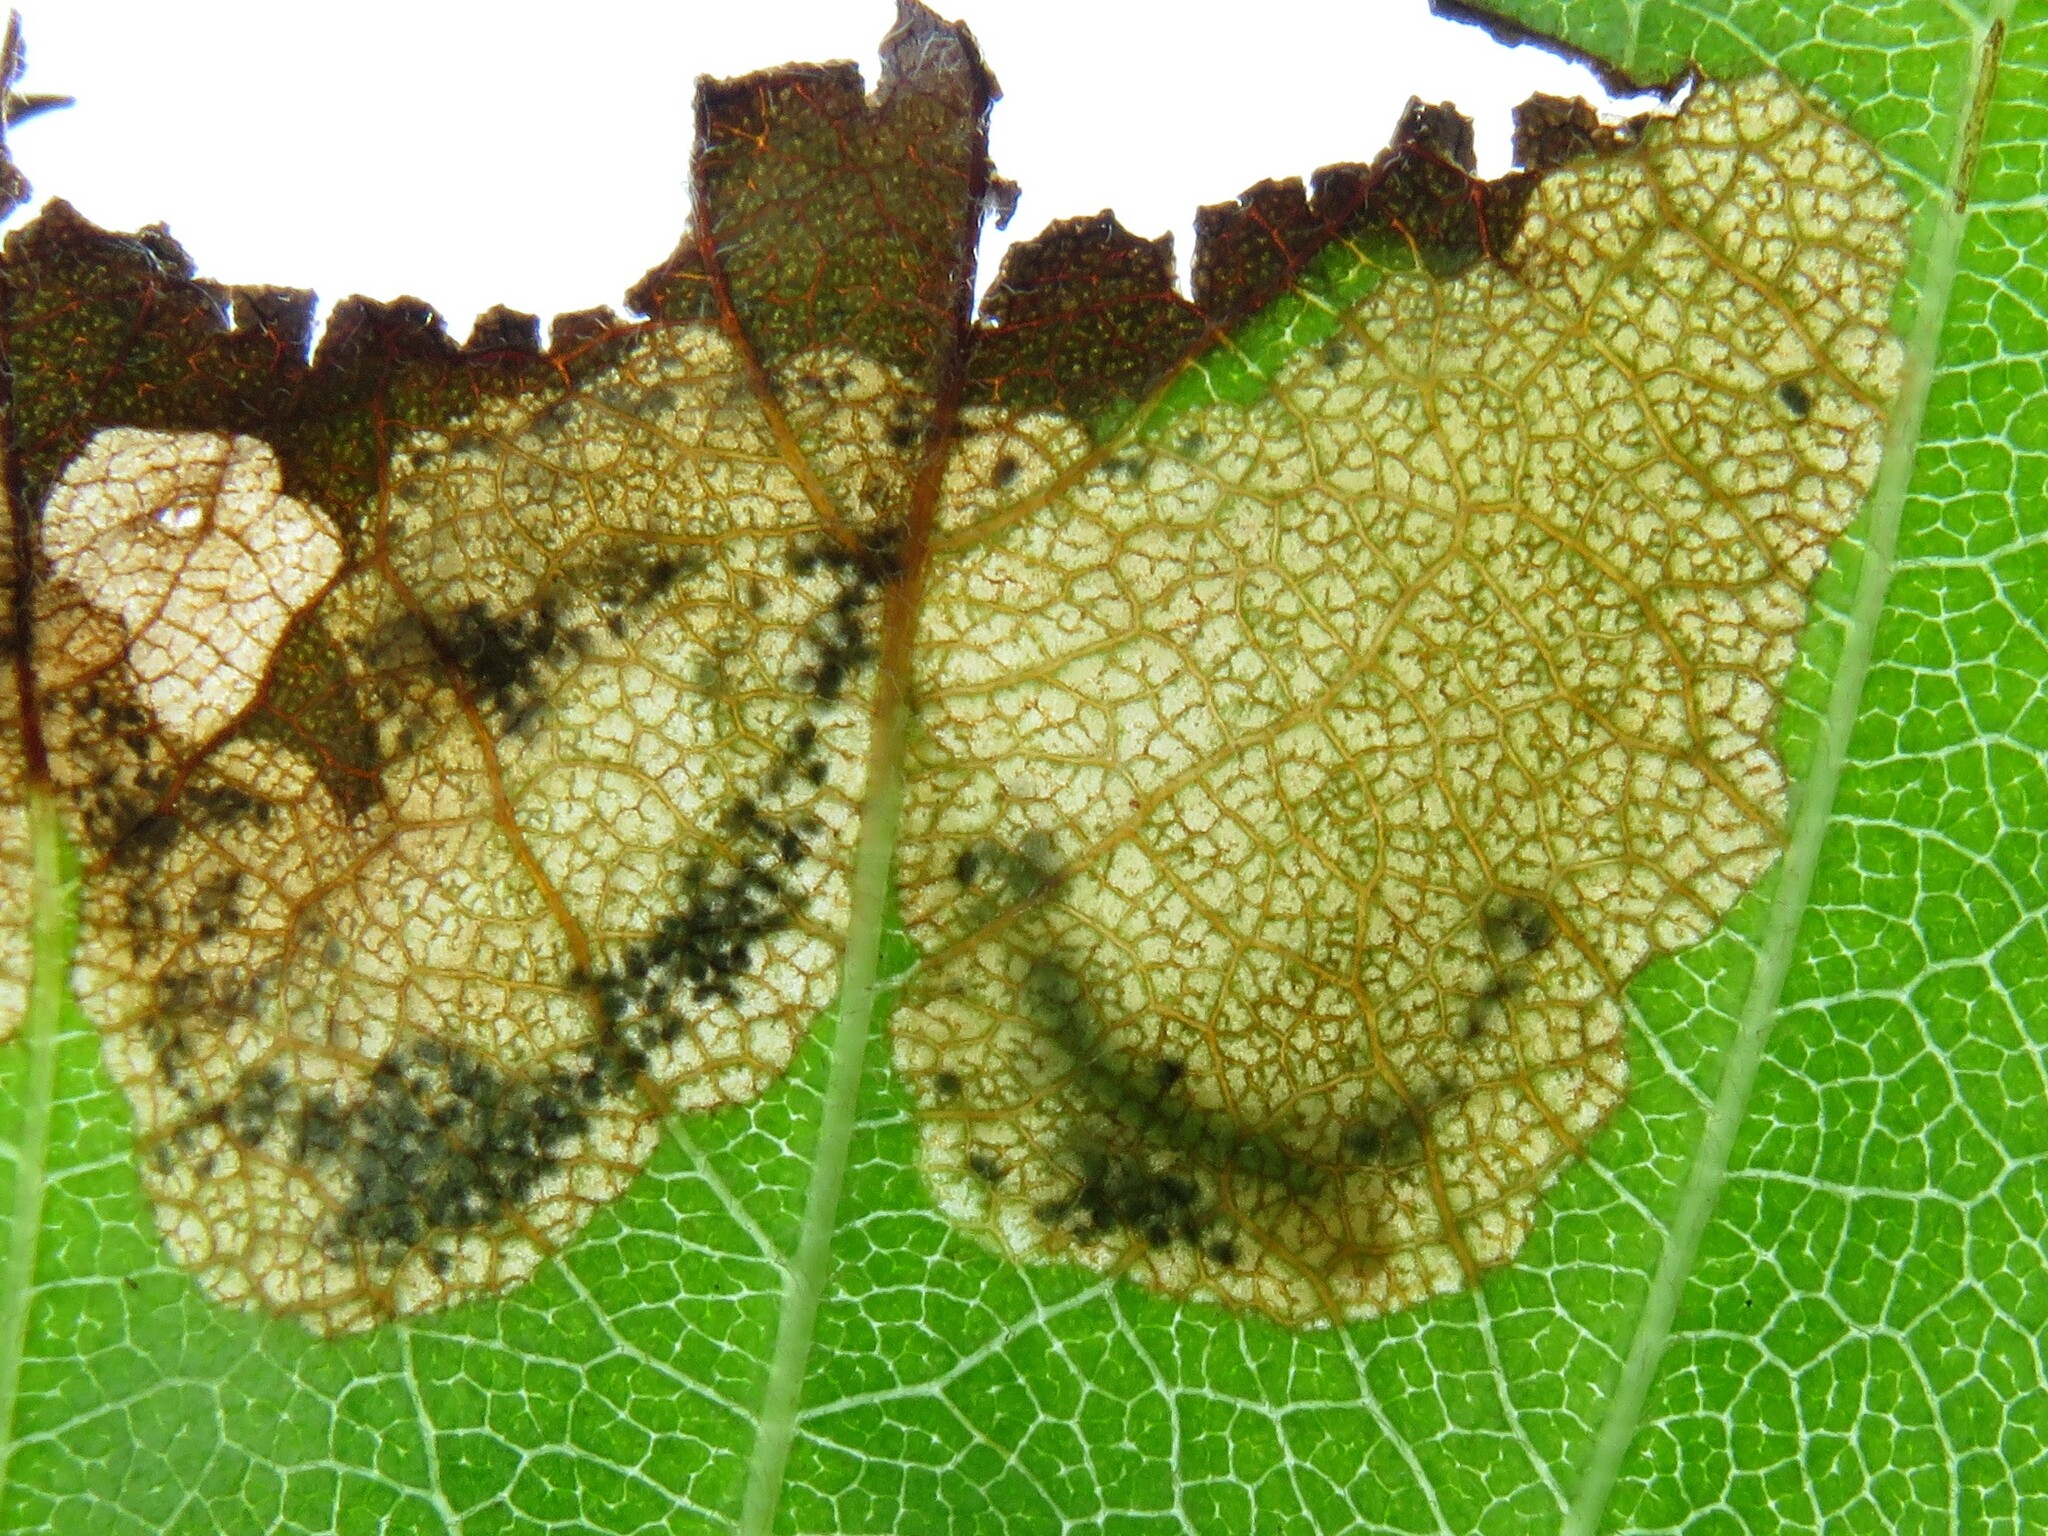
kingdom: Animalia
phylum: Arthropoda
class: Insecta
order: Hymenoptera
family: Tenthredinidae
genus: Profenusa
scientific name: Profenusa
